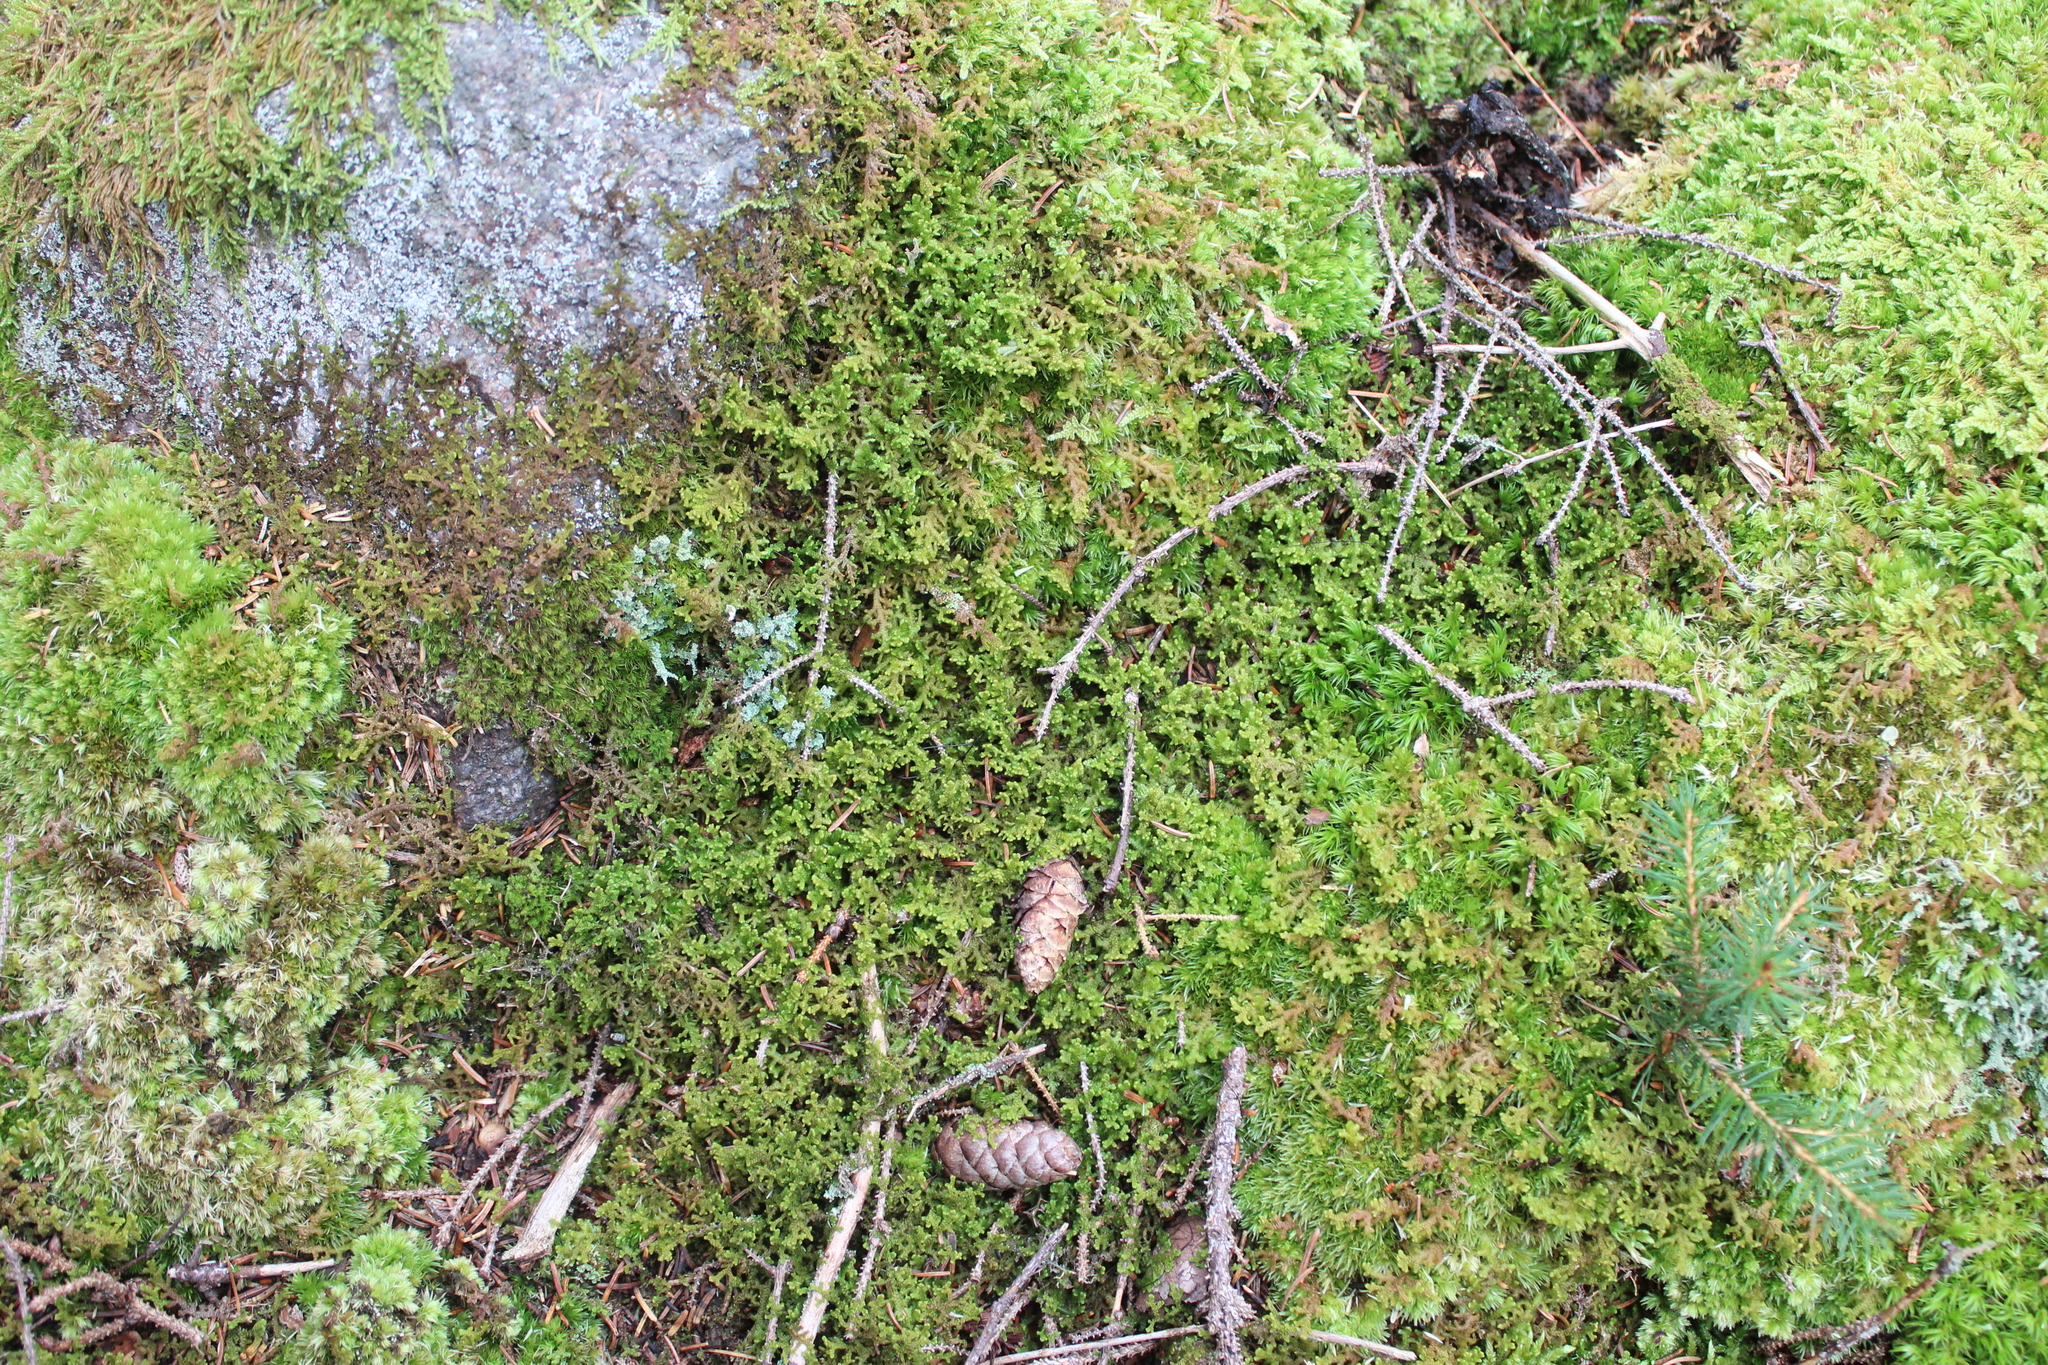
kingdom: Plantae
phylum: Marchantiophyta
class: Jungermanniopsida
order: Ptilidiales
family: Ptilidiaceae
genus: Ptilidium
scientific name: Ptilidium ciliare
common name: Ciliate fringewort
